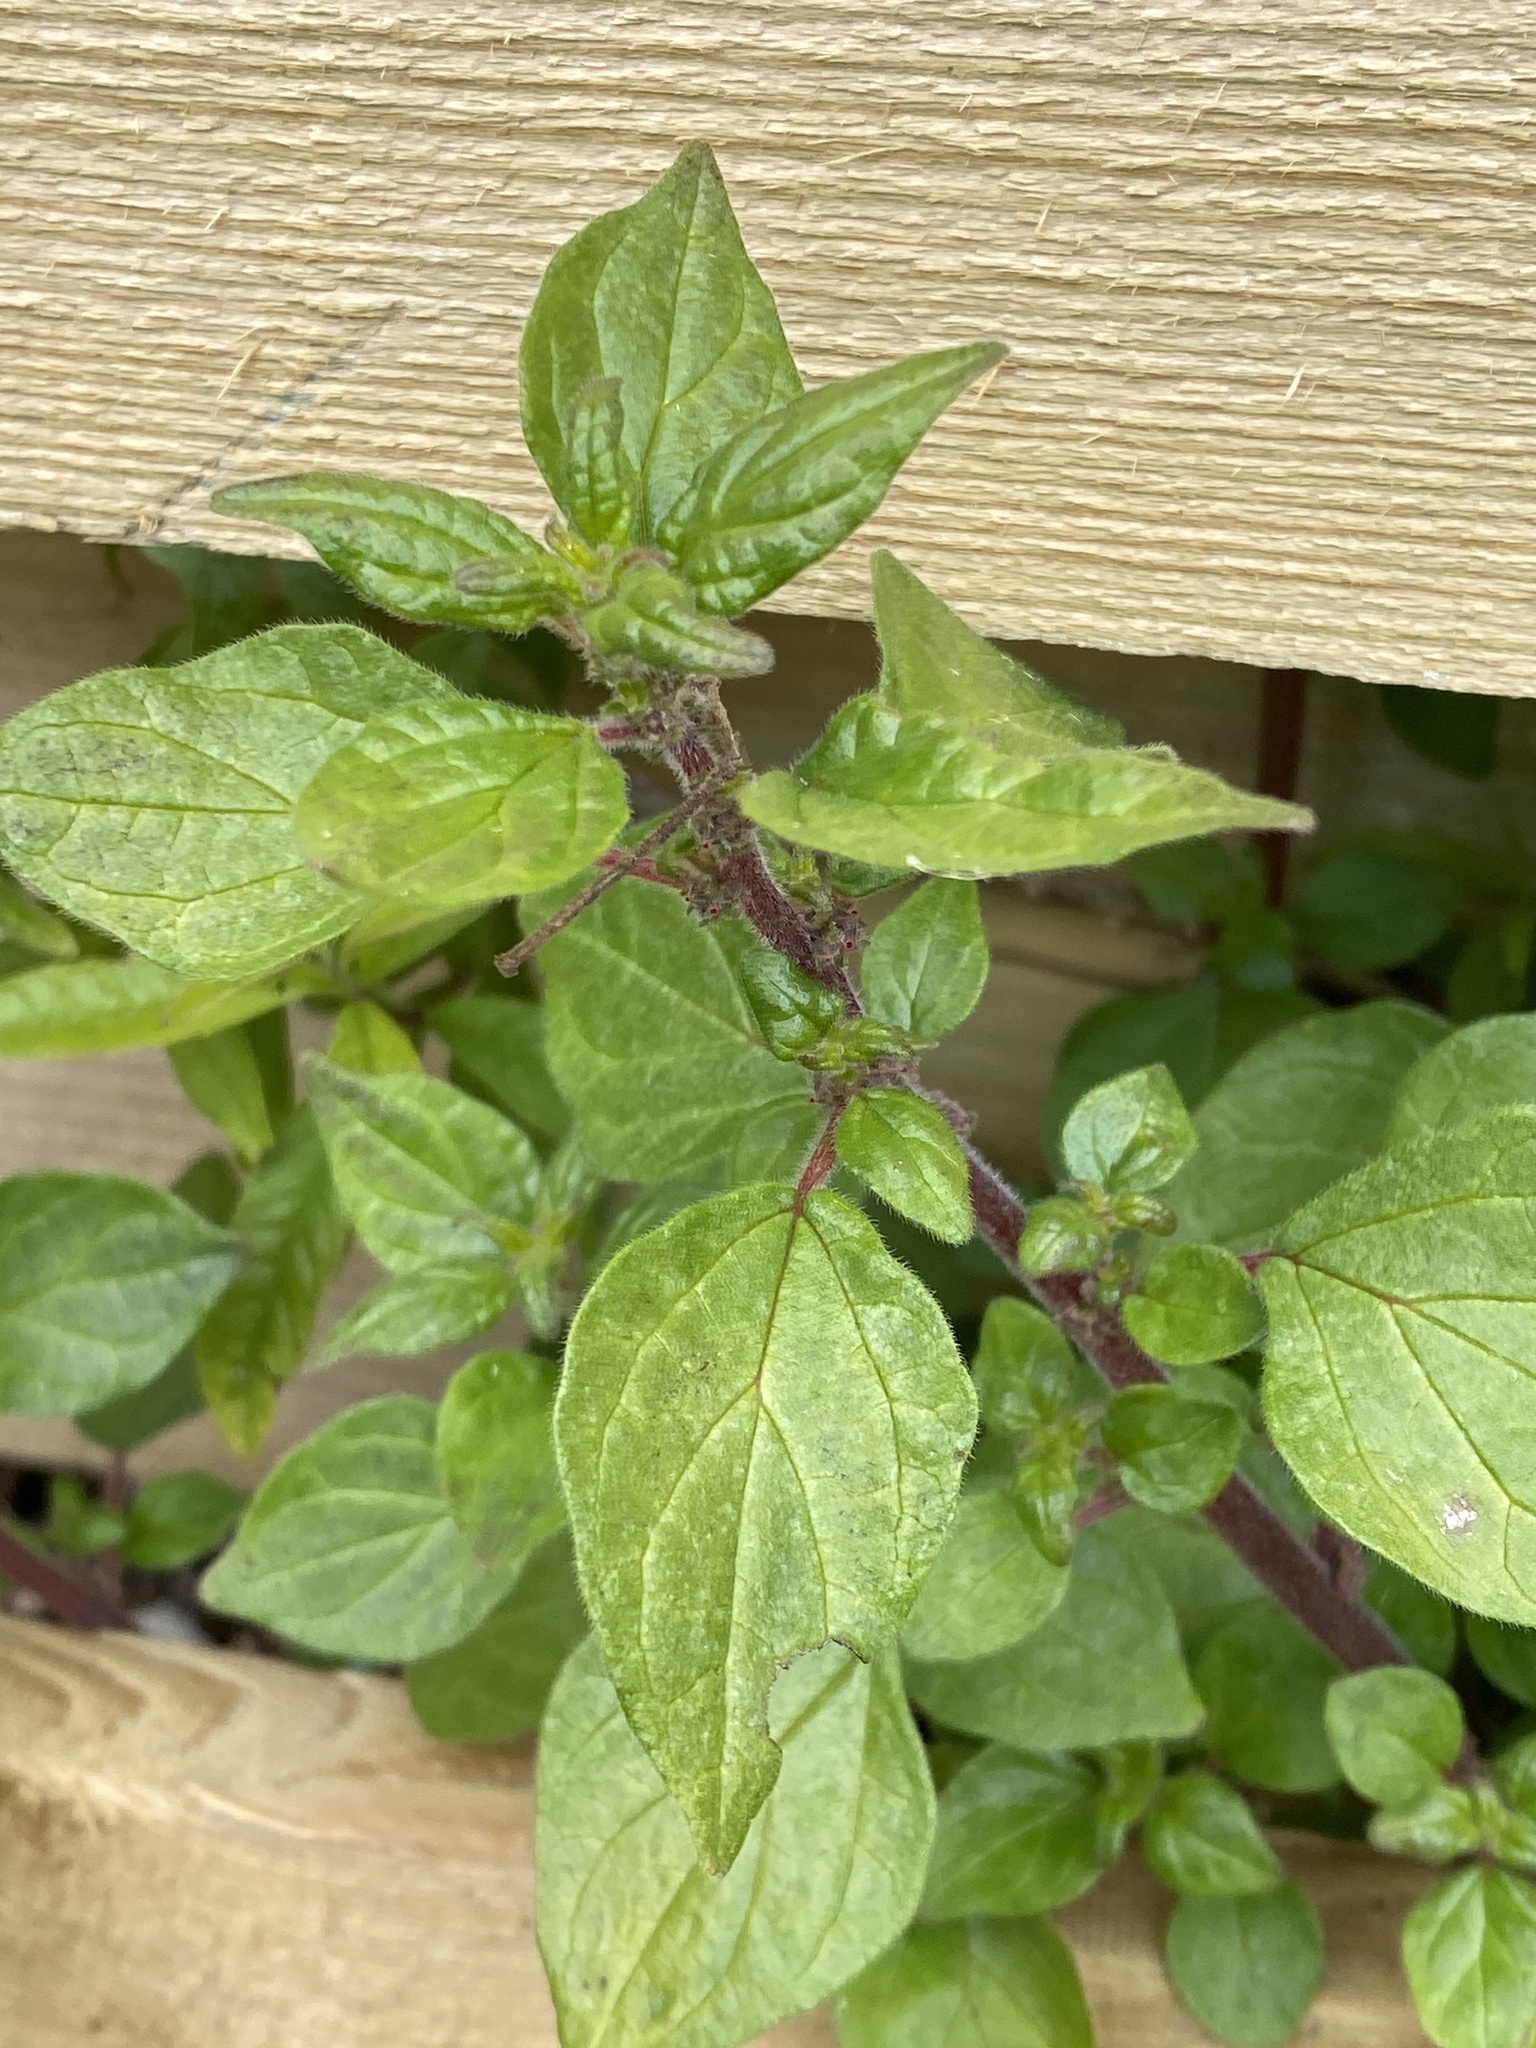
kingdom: Plantae
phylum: Tracheophyta
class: Magnoliopsida
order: Rosales
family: Urticaceae
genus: Parietaria
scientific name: Parietaria judaica
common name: Pellitory-of-the-wall
